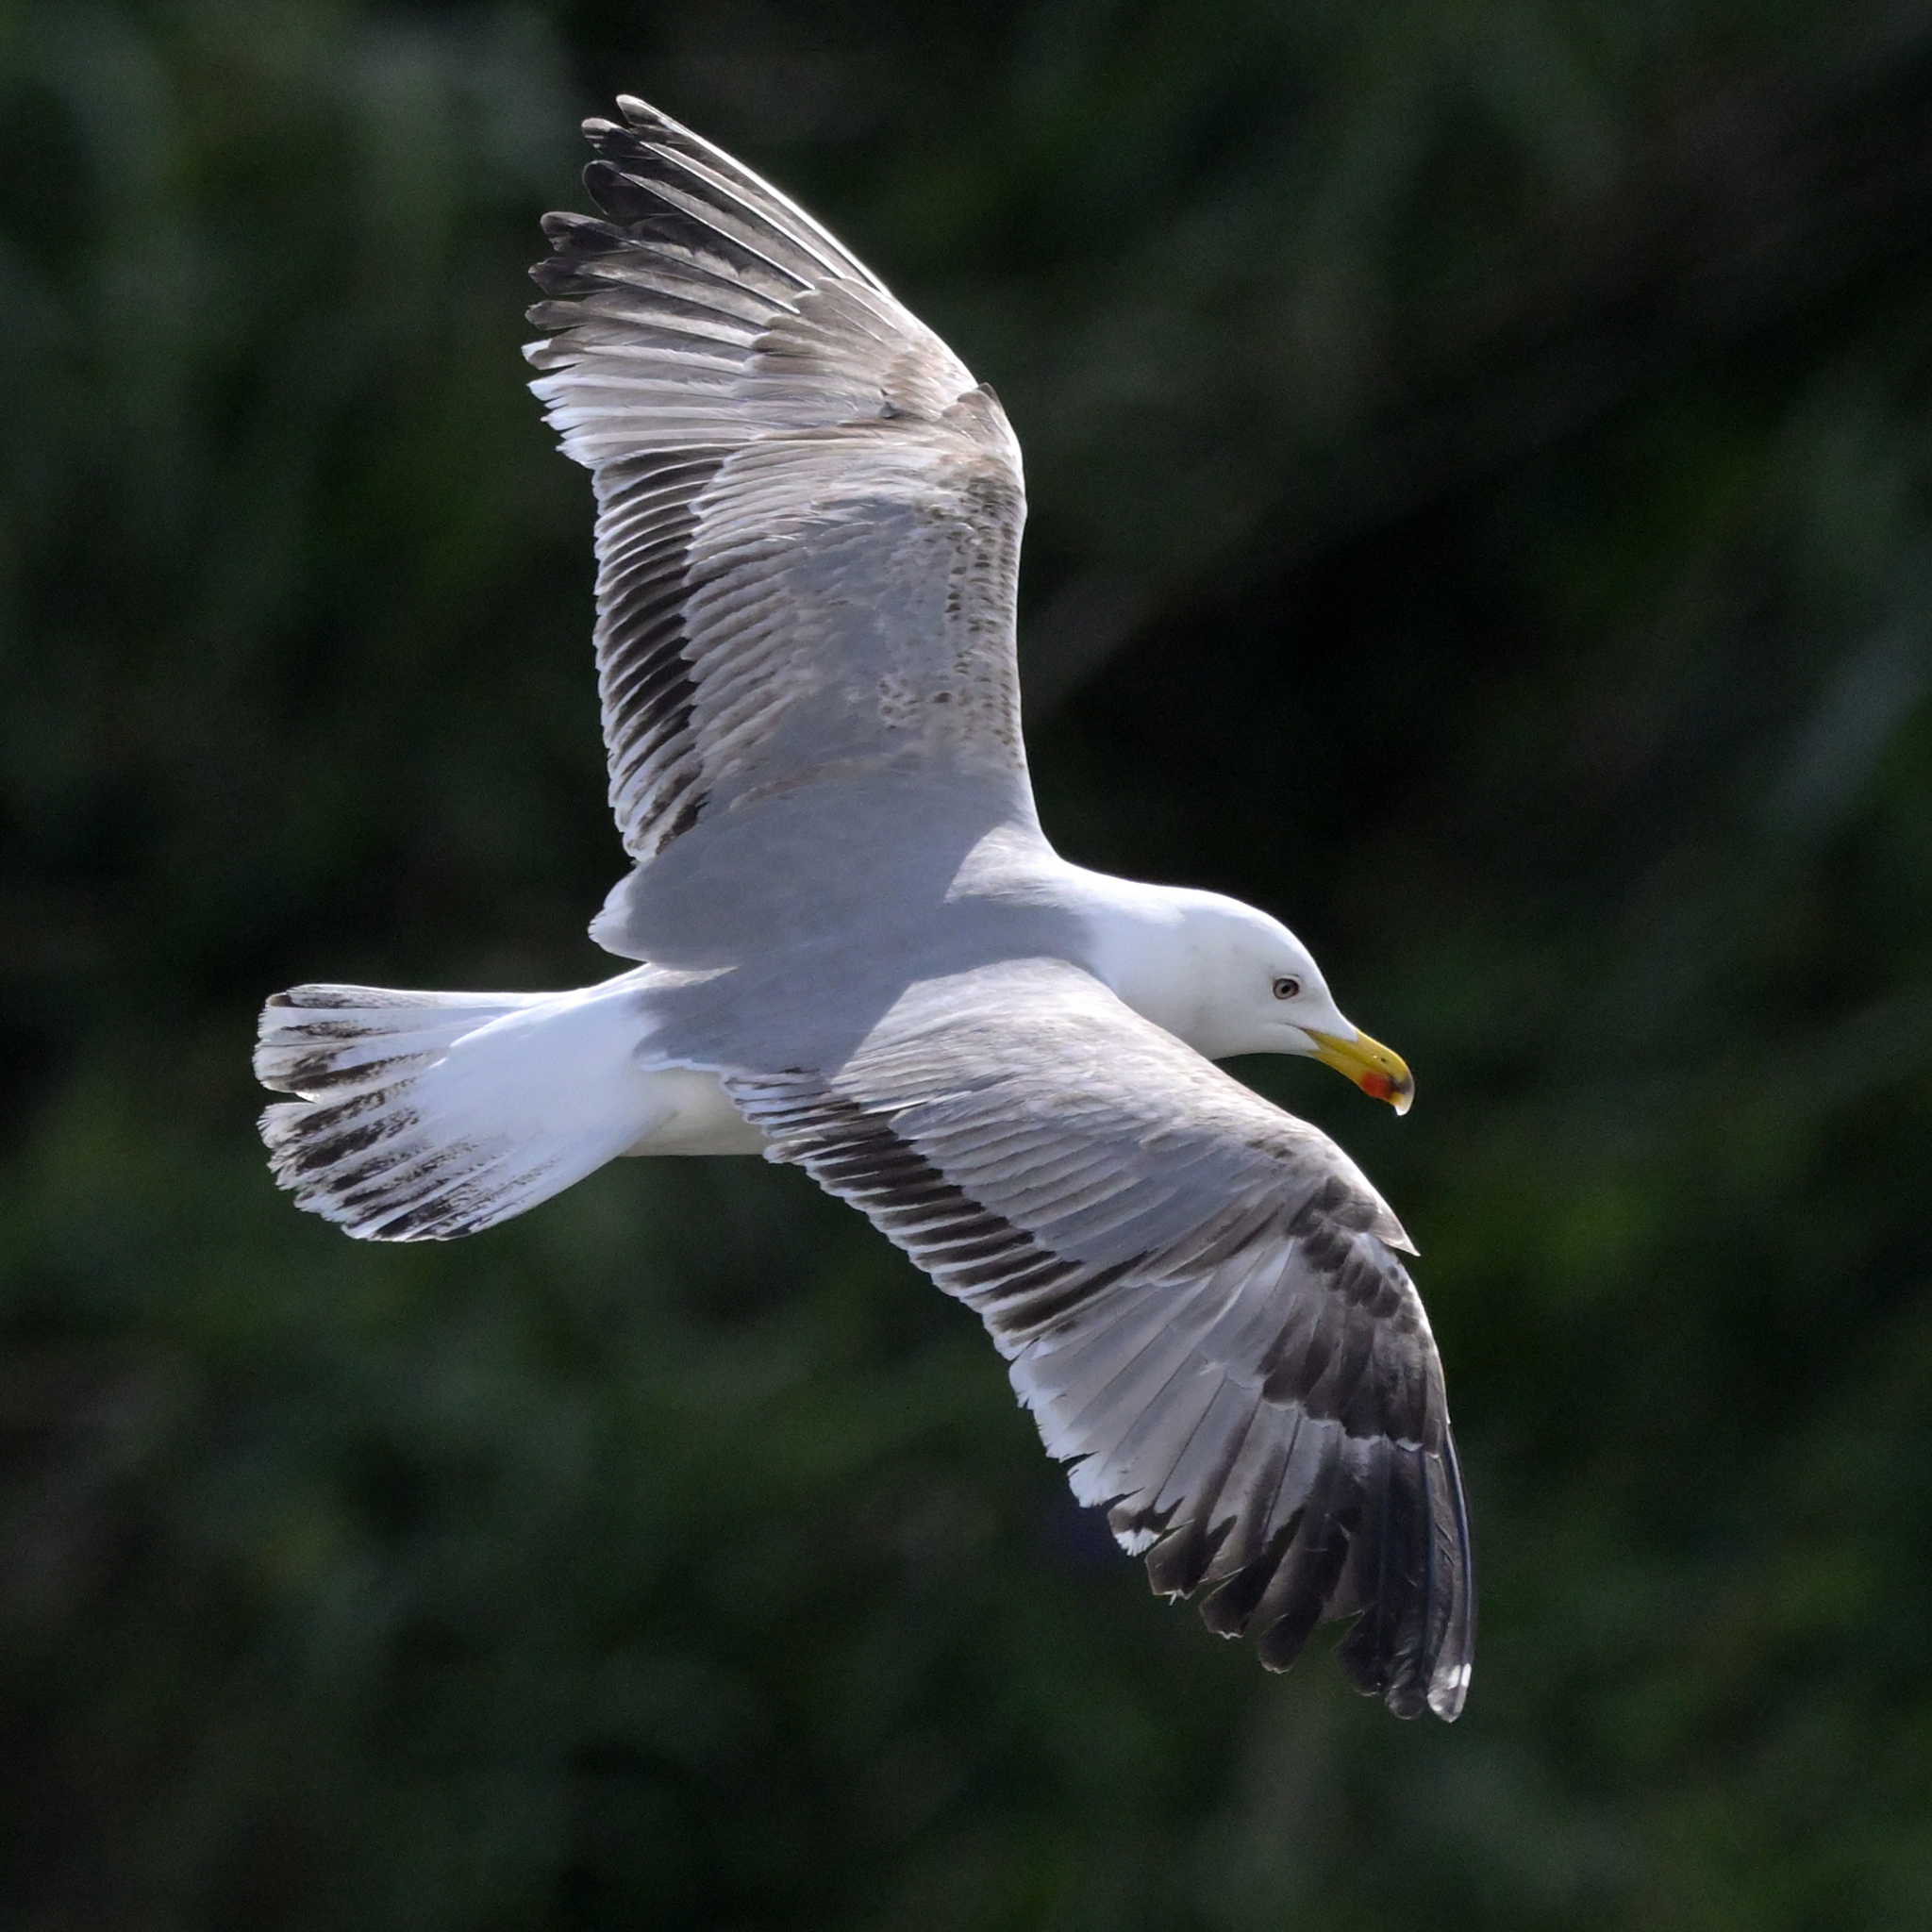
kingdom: Animalia
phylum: Chordata
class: Aves
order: Charadriiformes
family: Laridae
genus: Larus
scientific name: Larus michahellis
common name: Yellow-legged gull
